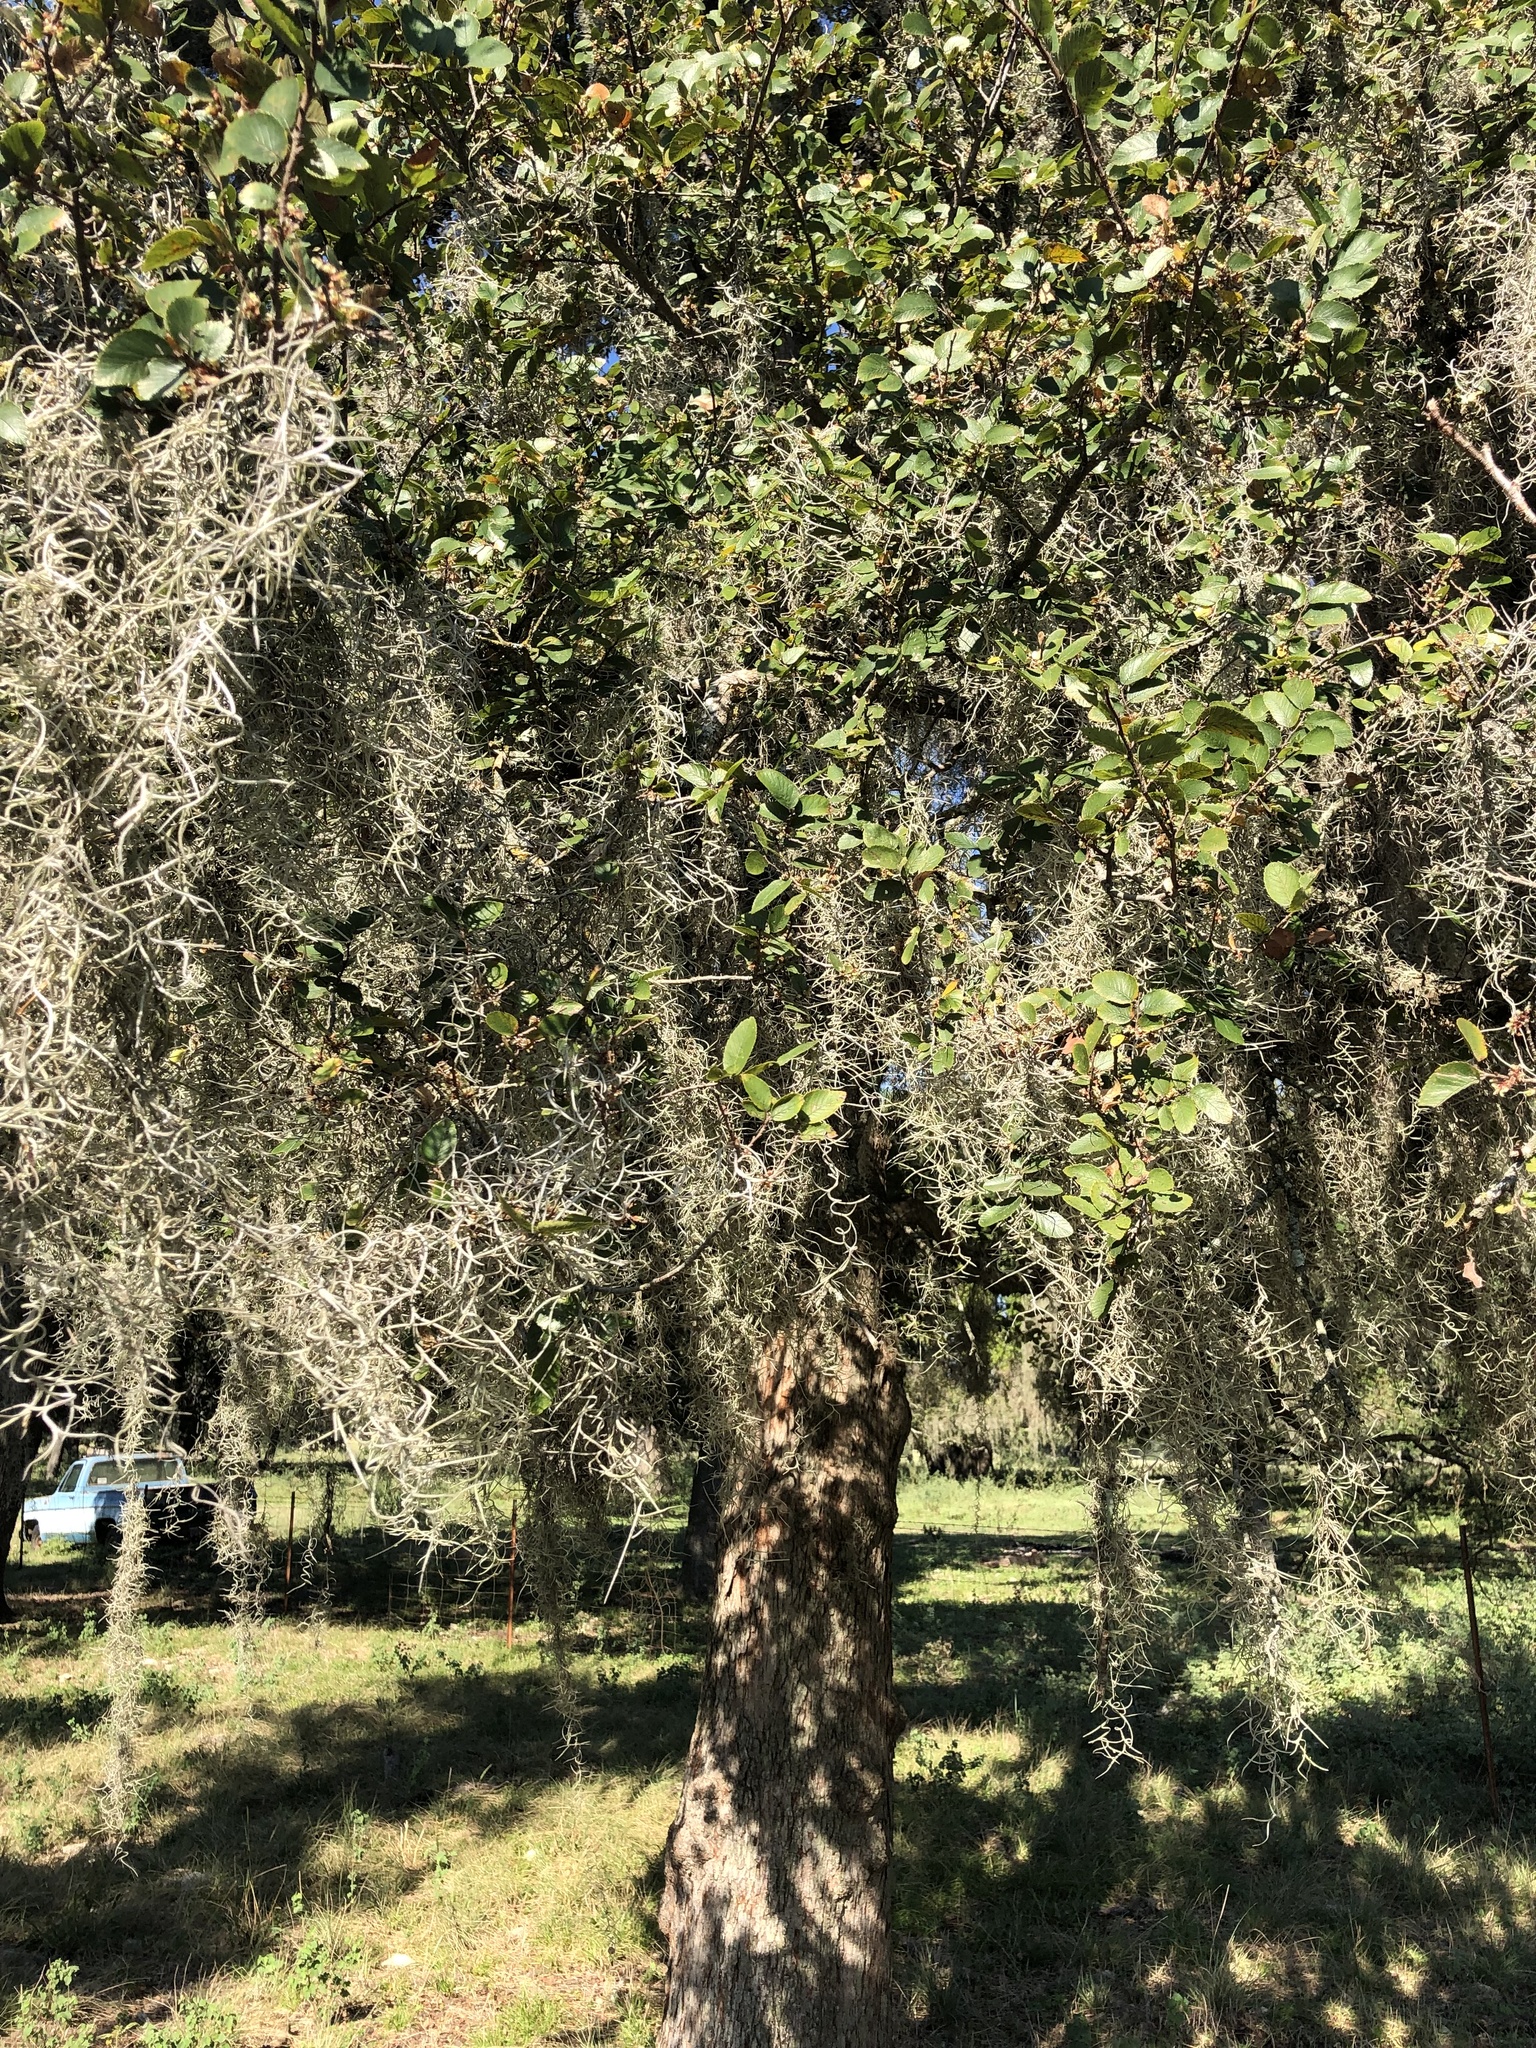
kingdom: Plantae
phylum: Tracheophyta
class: Magnoliopsida
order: Rosales
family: Ulmaceae
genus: Ulmus
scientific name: Ulmus crassifolia
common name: Basket elm
